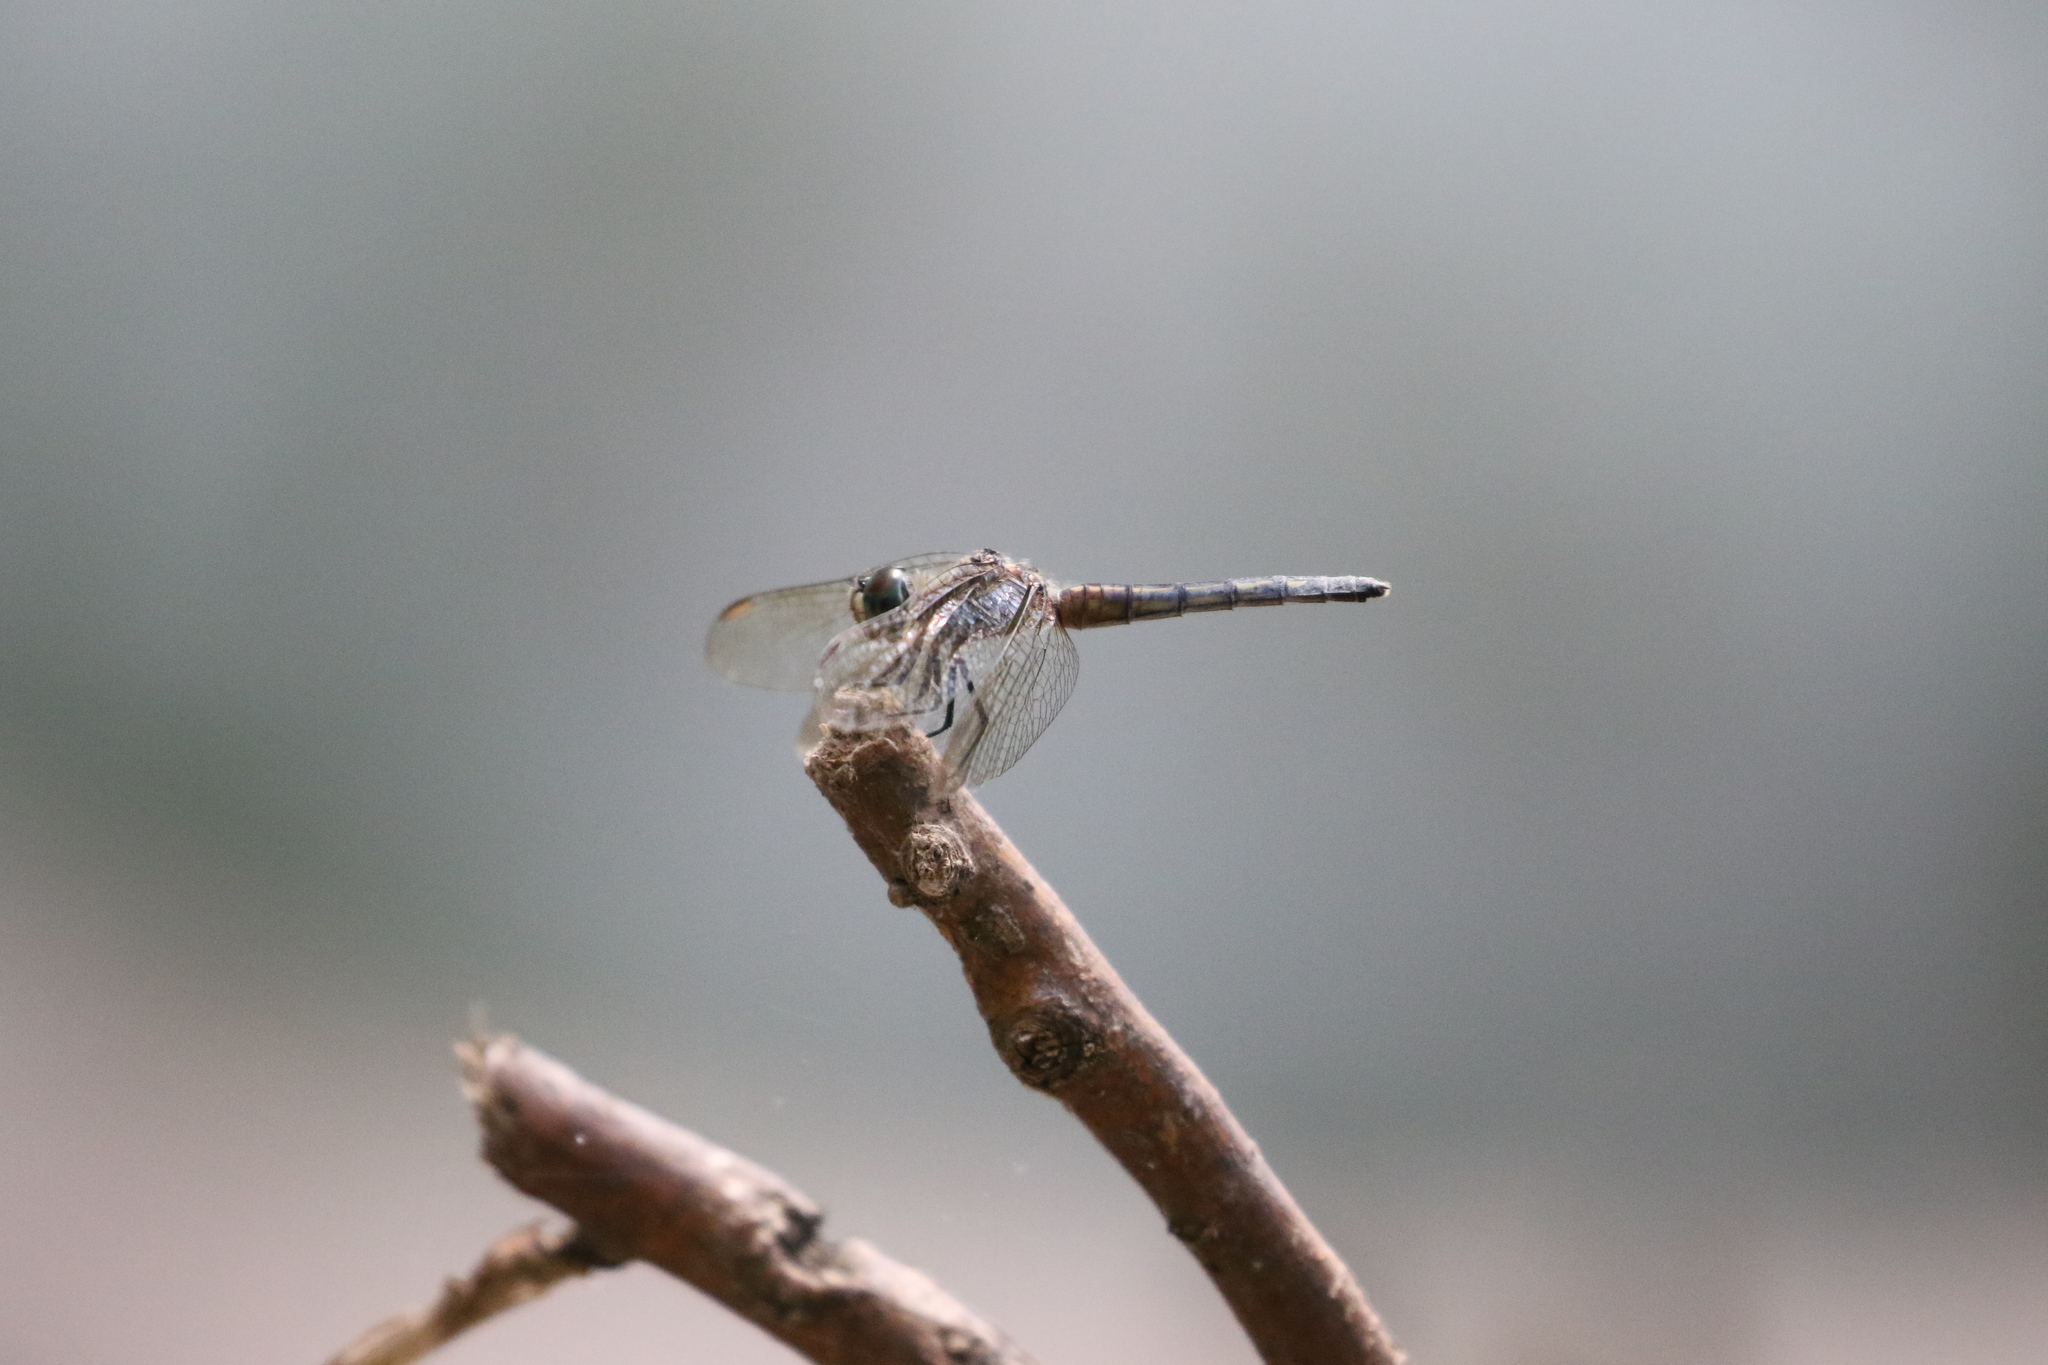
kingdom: Animalia
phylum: Arthropoda
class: Insecta
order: Odonata
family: Libellulidae
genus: Pachydiplax
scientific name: Pachydiplax longipennis
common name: Blue dasher
